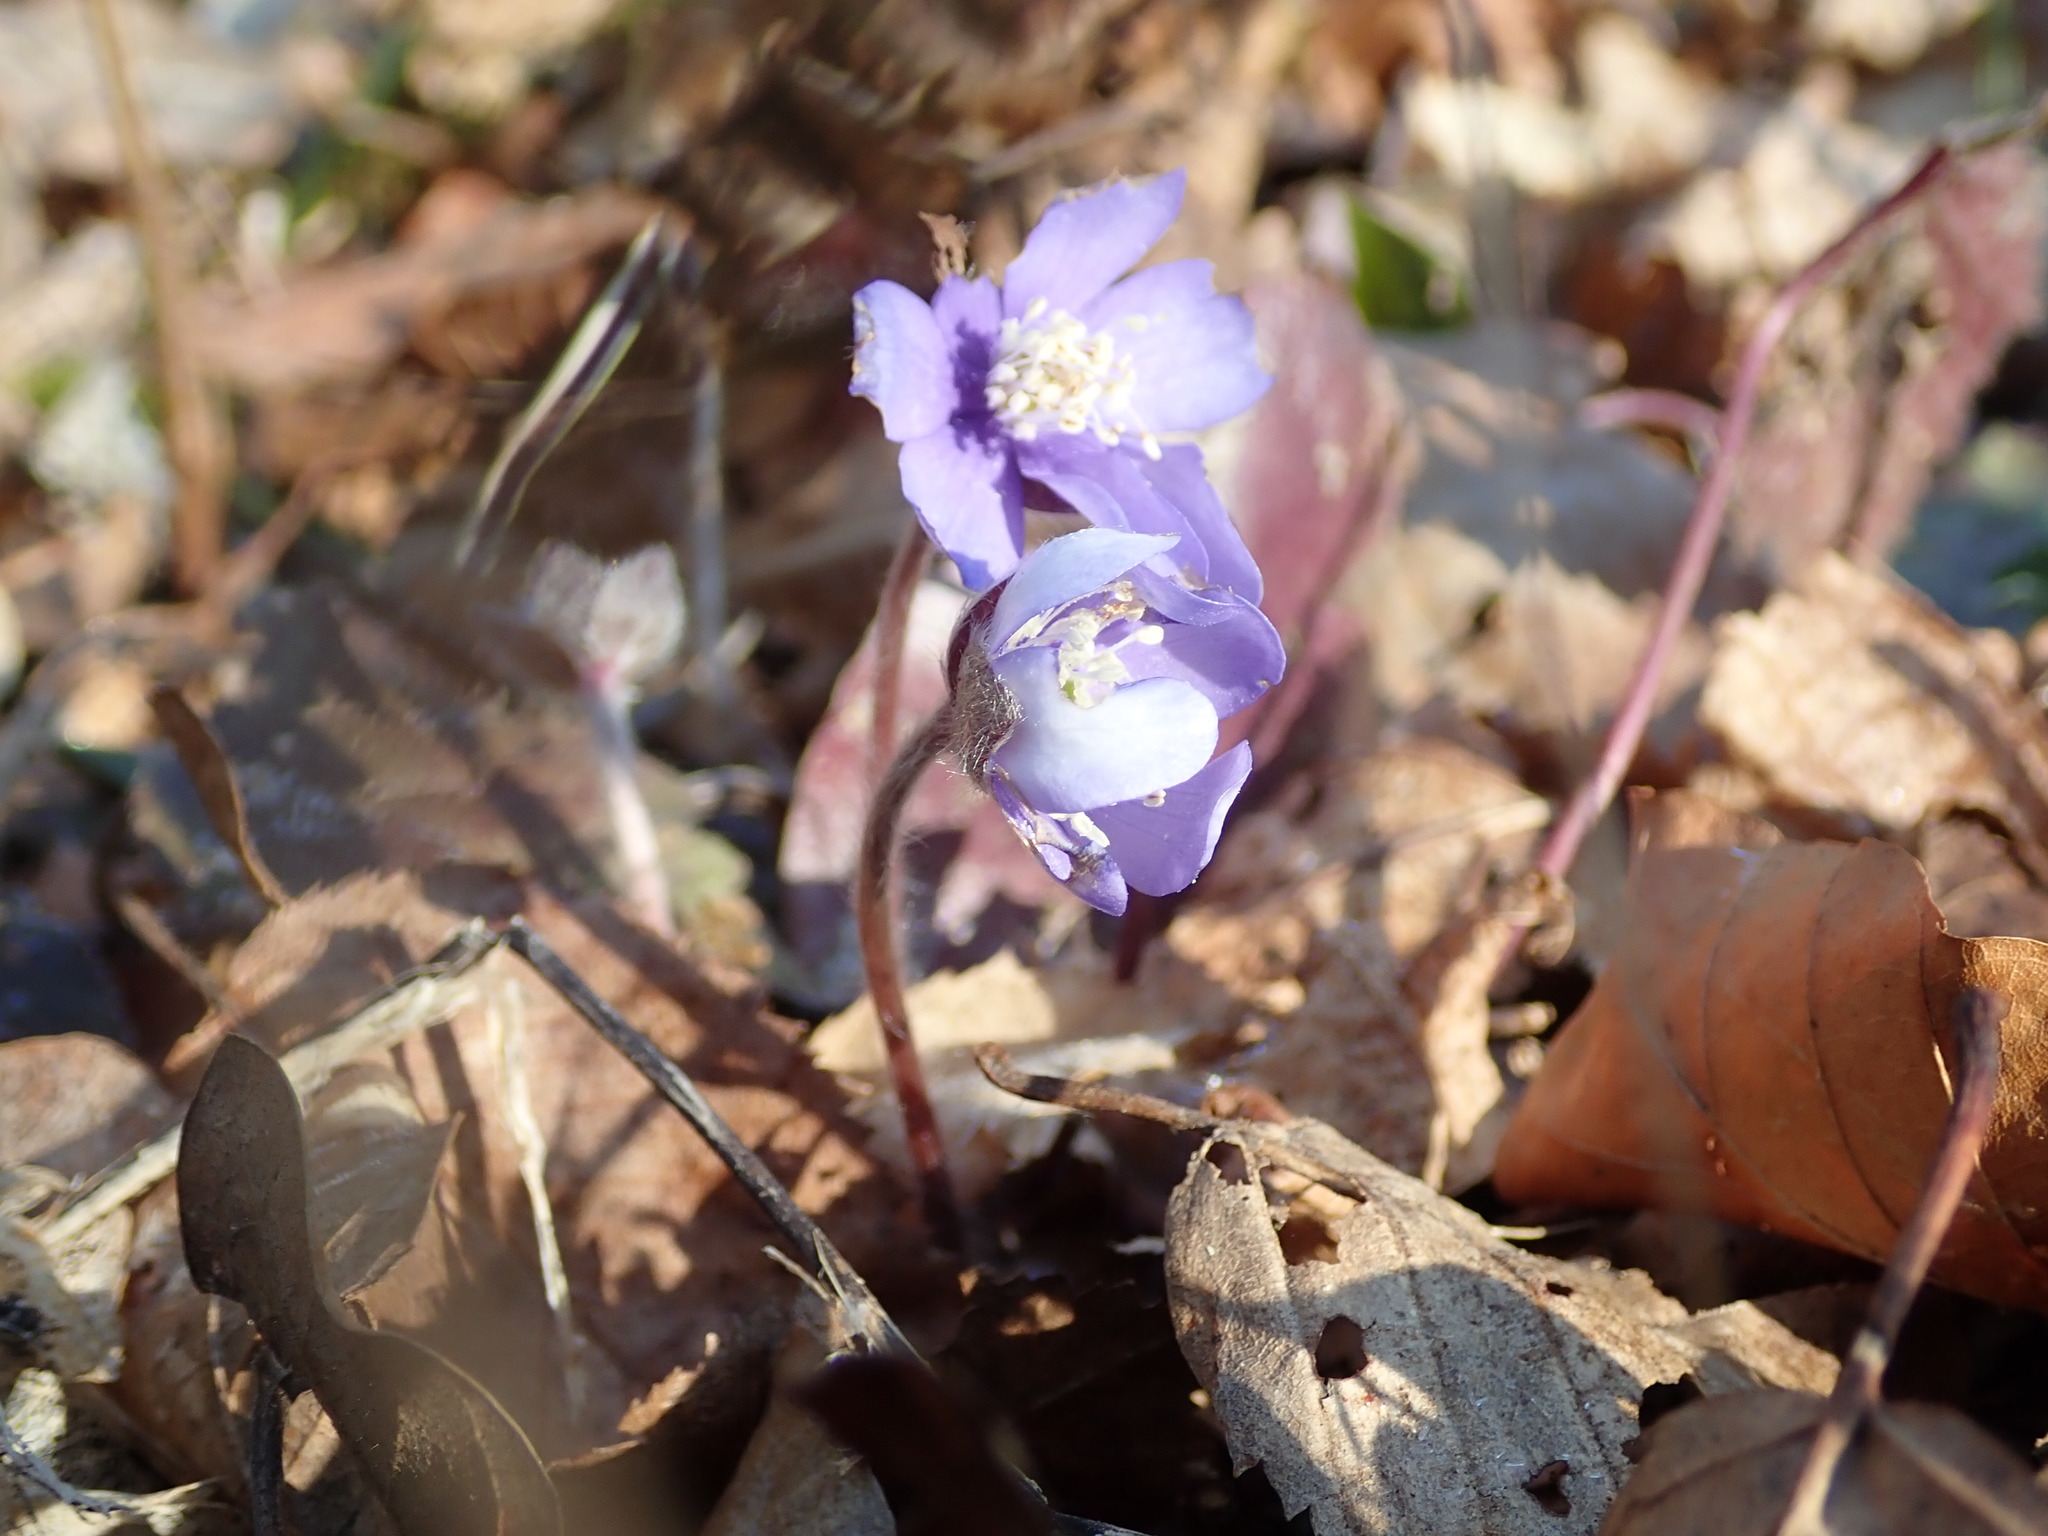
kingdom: Plantae
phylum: Tracheophyta
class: Magnoliopsida
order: Ranunculales
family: Ranunculaceae
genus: Hepatica
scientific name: Hepatica nobilis
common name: Liverleaf
